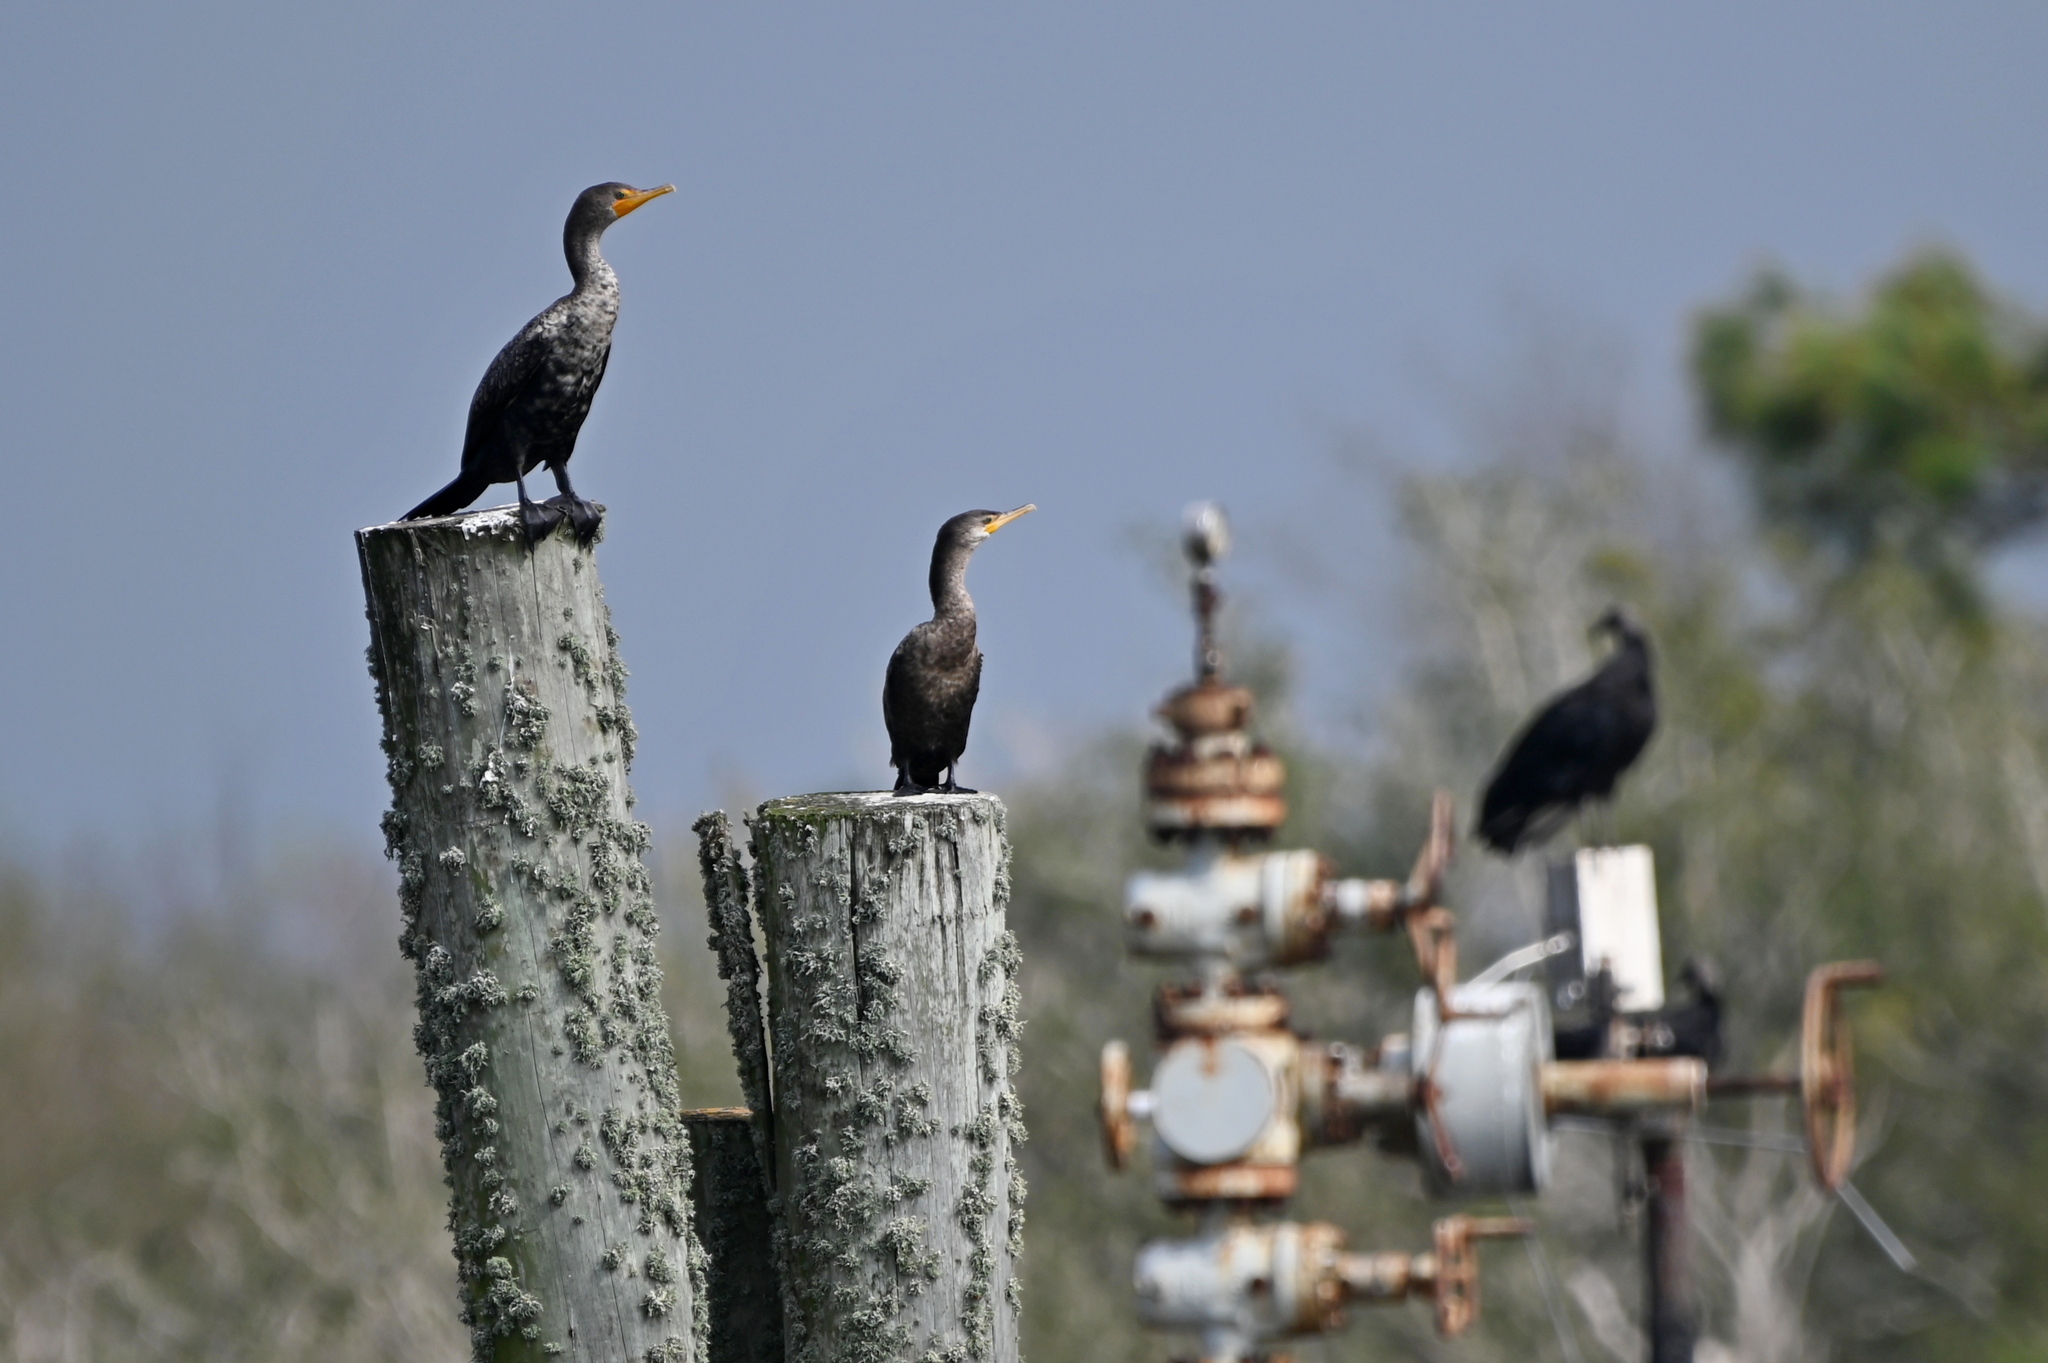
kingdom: Animalia
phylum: Chordata
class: Aves
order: Suliformes
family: Phalacrocoracidae
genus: Phalacrocorax
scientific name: Phalacrocorax auritus
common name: Double-crested cormorant
